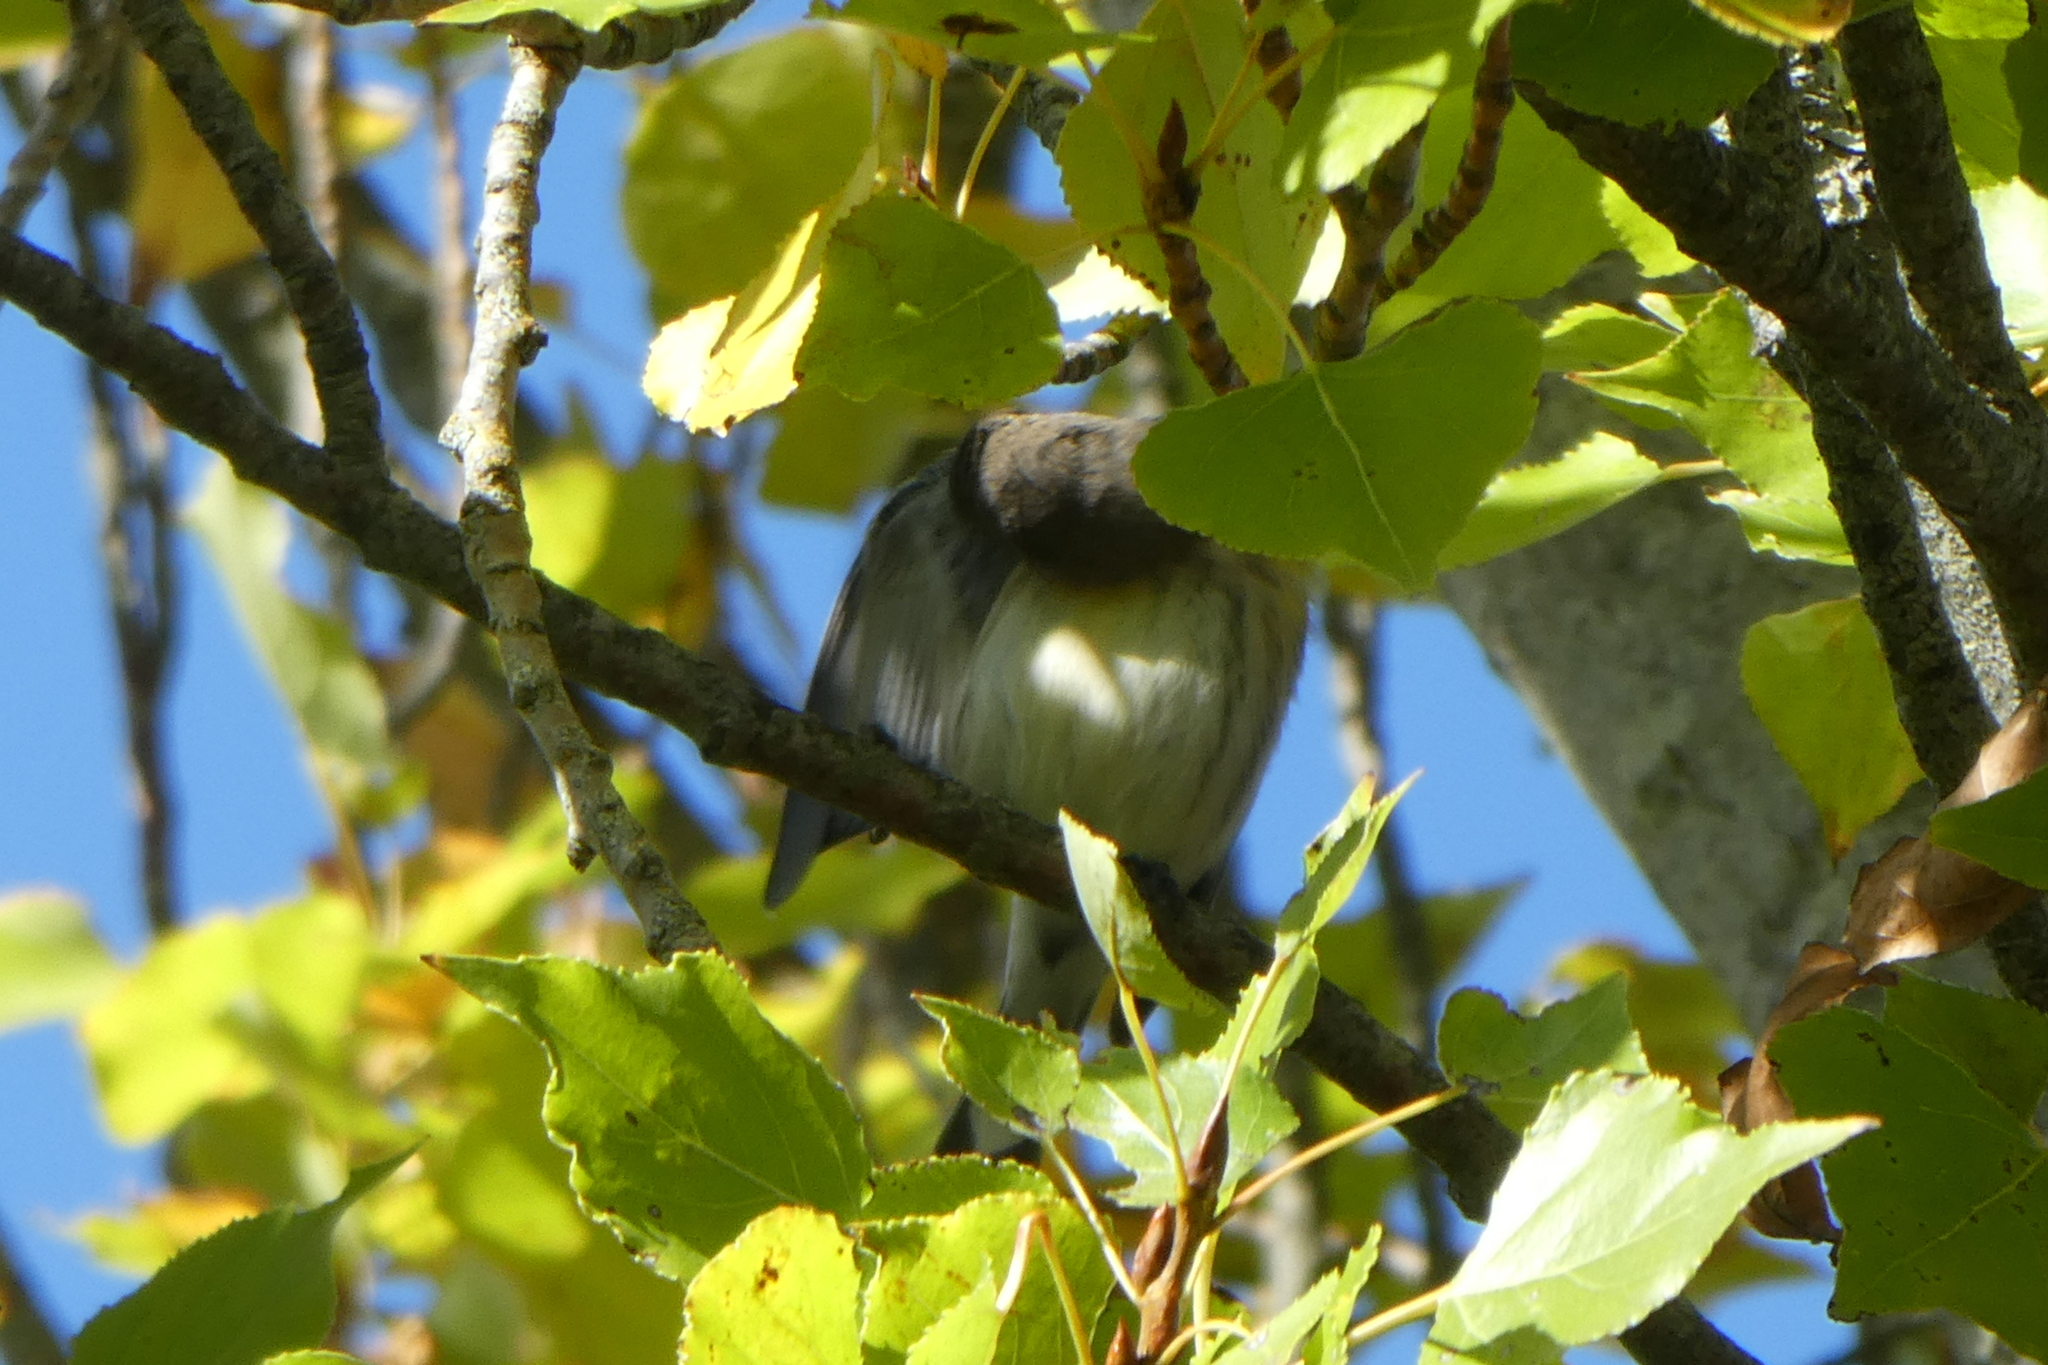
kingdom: Animalia
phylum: Chordata
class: Aves
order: Passeriformes
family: Parulidae
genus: Setophaga
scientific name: Setophaga coronata
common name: Myrtle warbler
